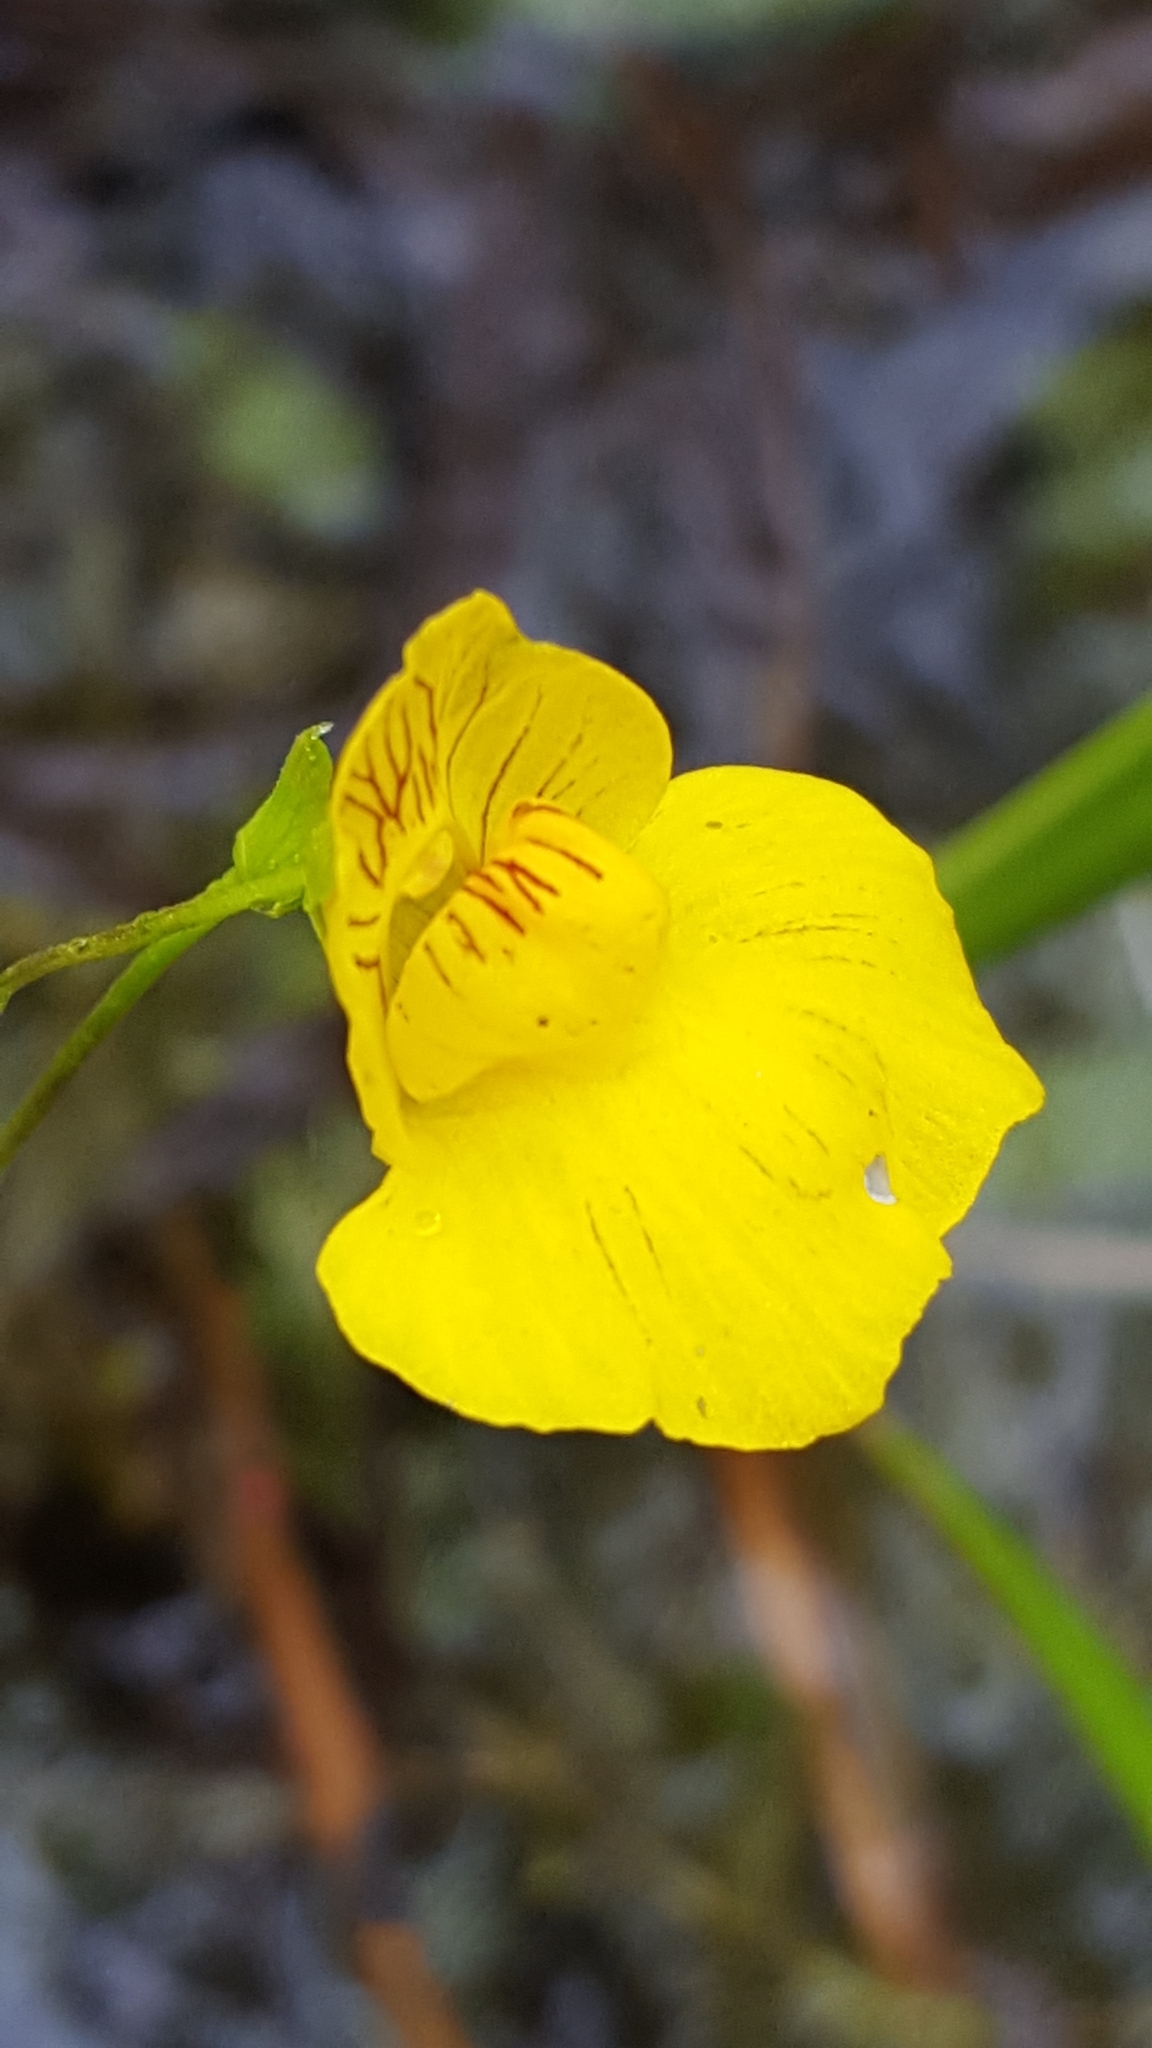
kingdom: Plantae
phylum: Tracheophyta
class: Magnoliopsida
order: Lamiales
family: Lentibulariaceae
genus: Utricularia
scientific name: Utricularia intermedia
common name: Intermediate bladderwort
